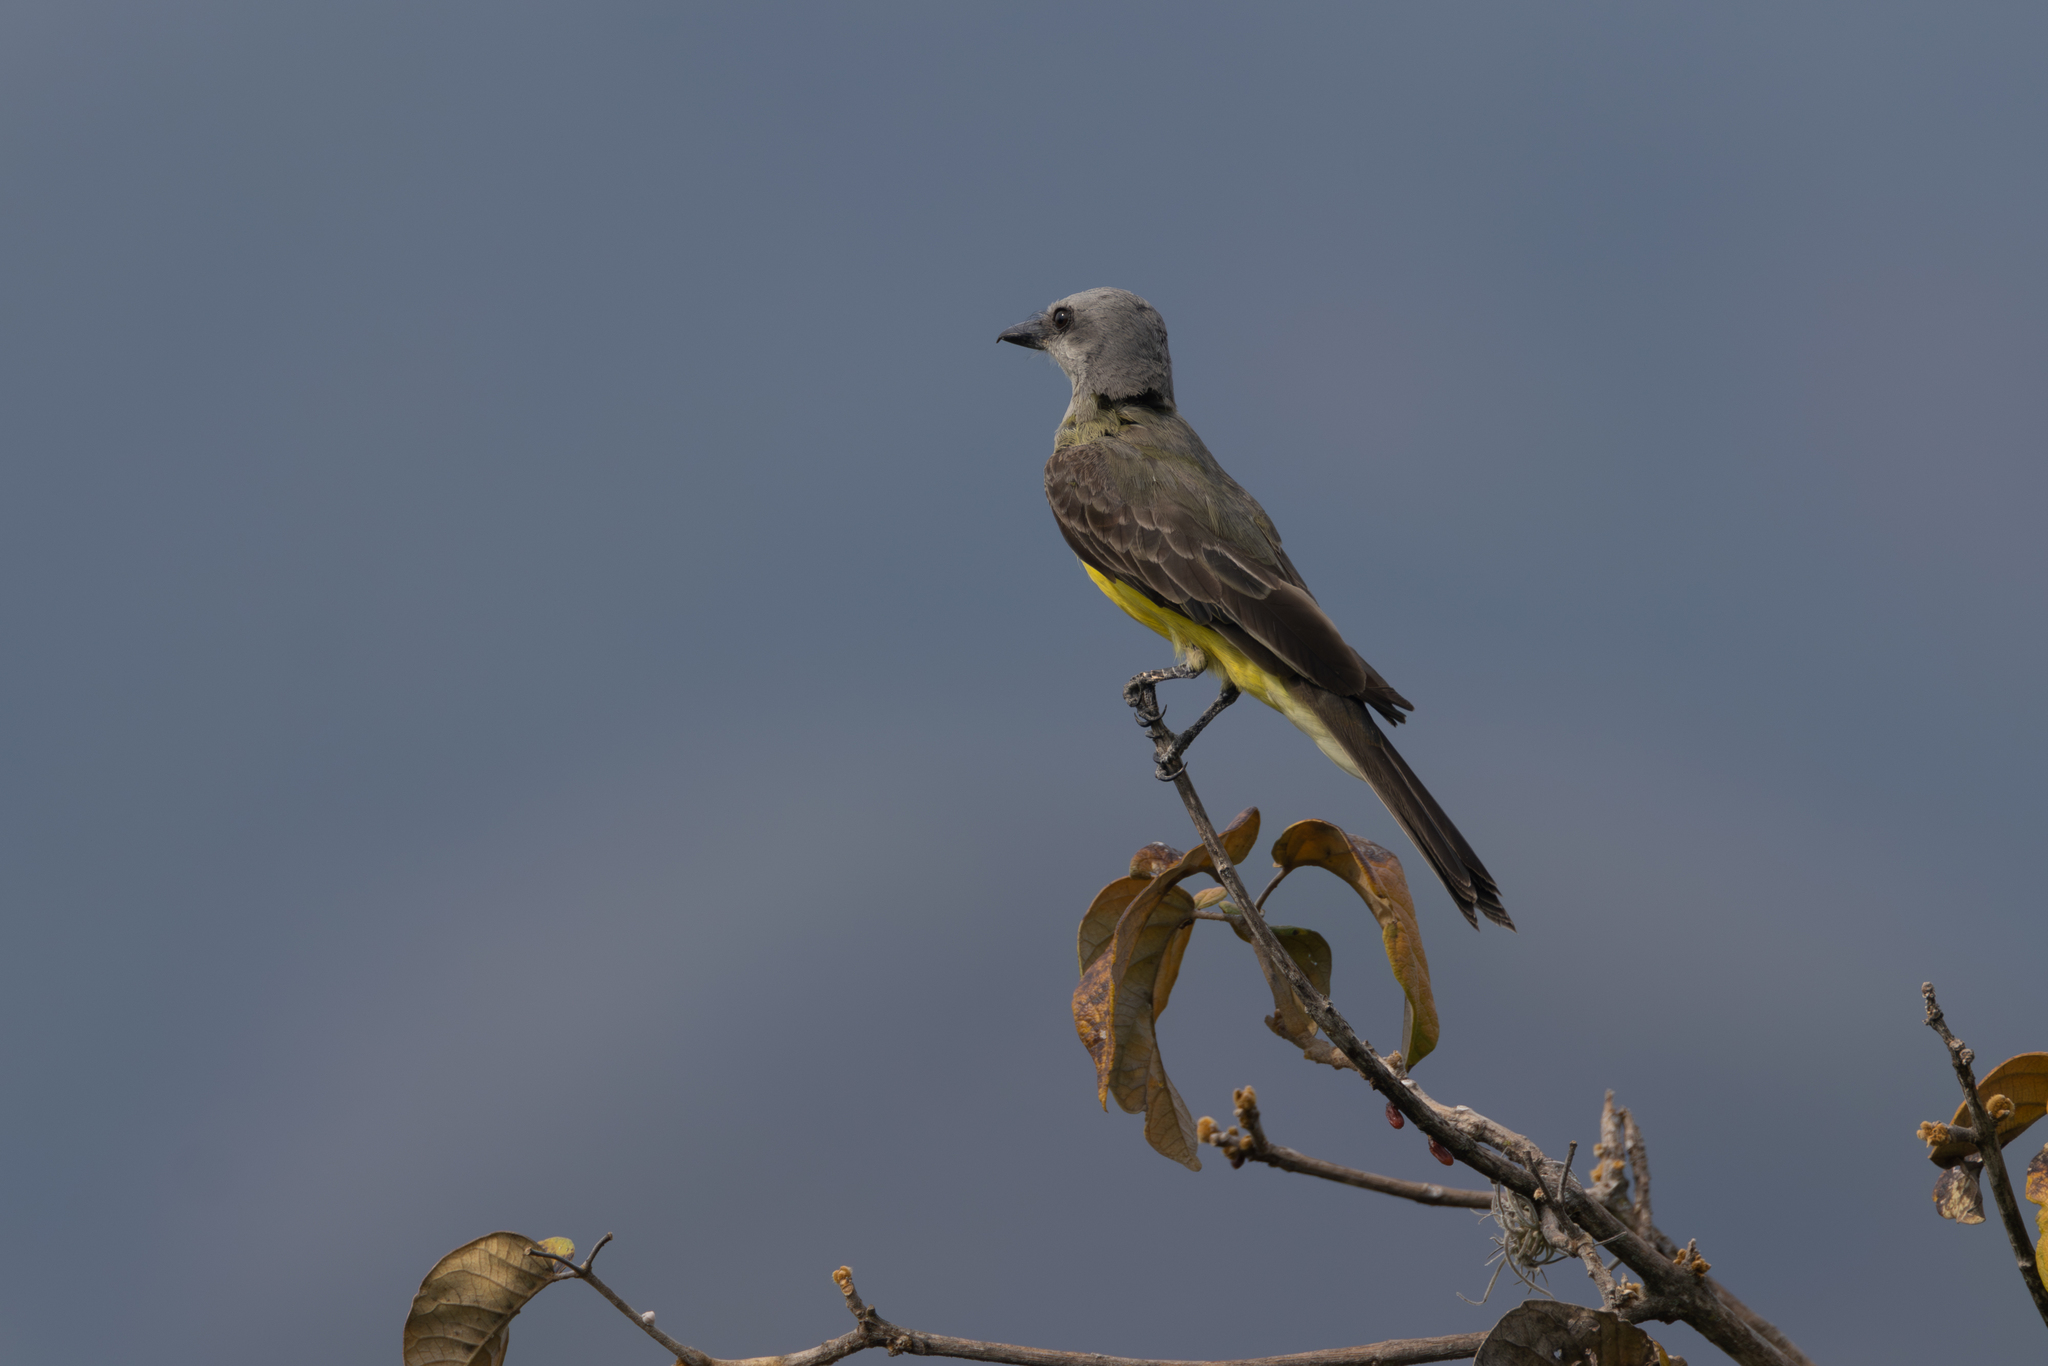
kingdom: Animalia
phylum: Chordata
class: Aves
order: Passeriformes
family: Tyrannidae
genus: Tyrannus
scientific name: Tyrannus melancholicus
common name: Tropical kingbird
